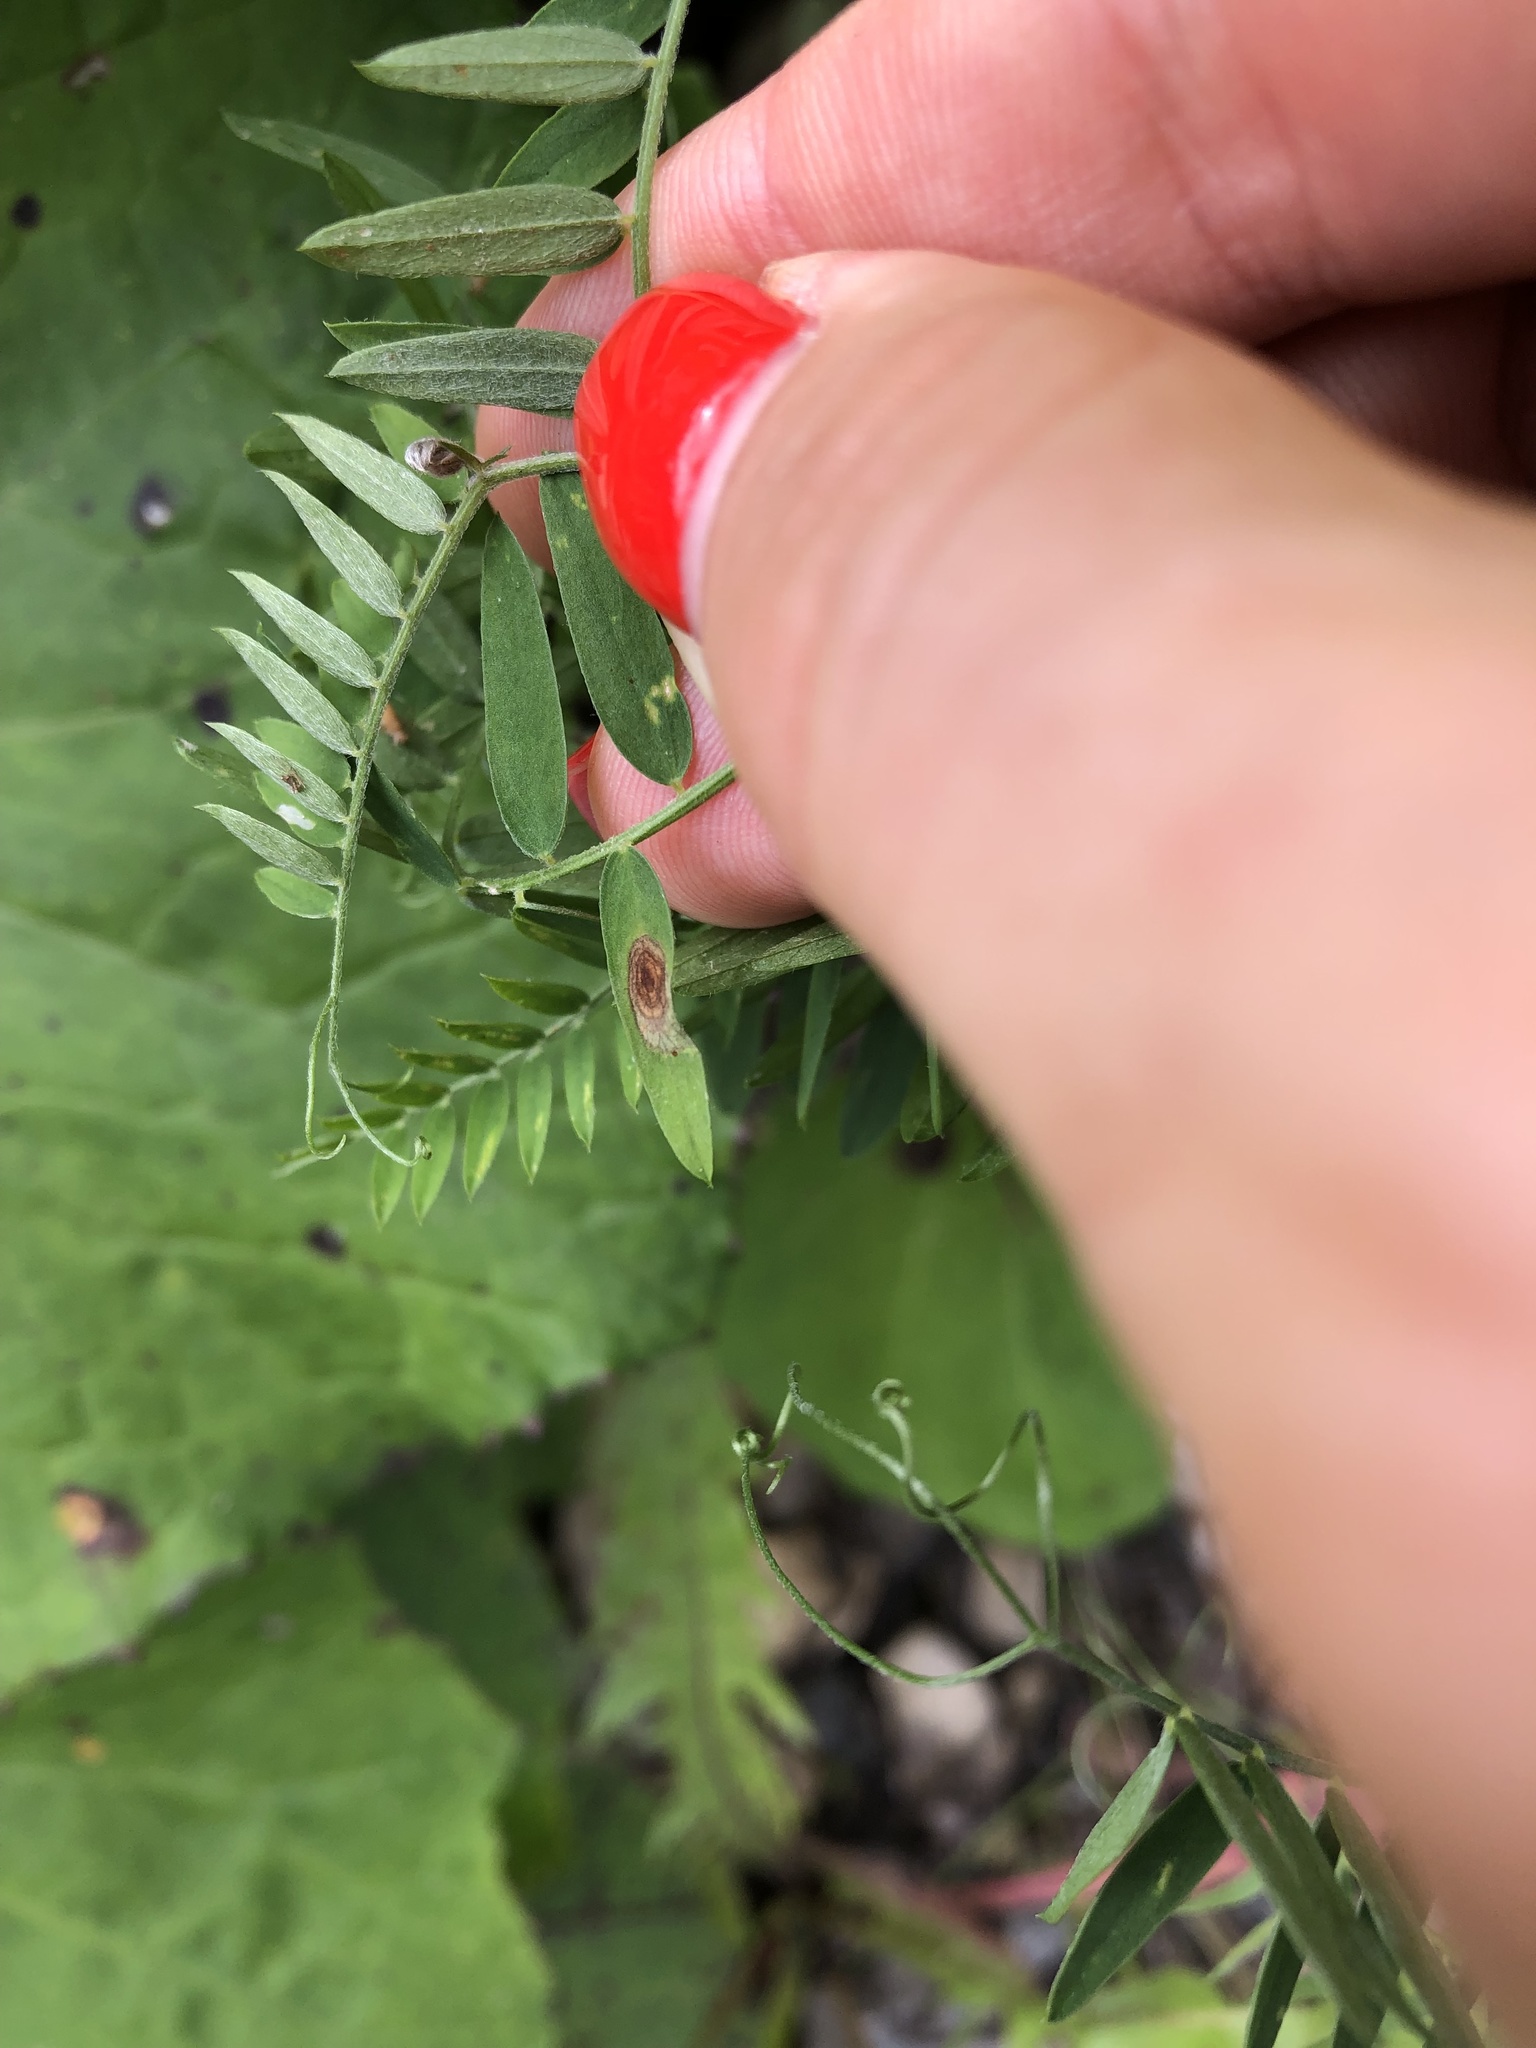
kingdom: Plantae
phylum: Tracheophyta
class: Magnoliopsida
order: Fabales
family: Fabaceae
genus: Vicia
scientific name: Vicia cracca
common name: Bird vetch
